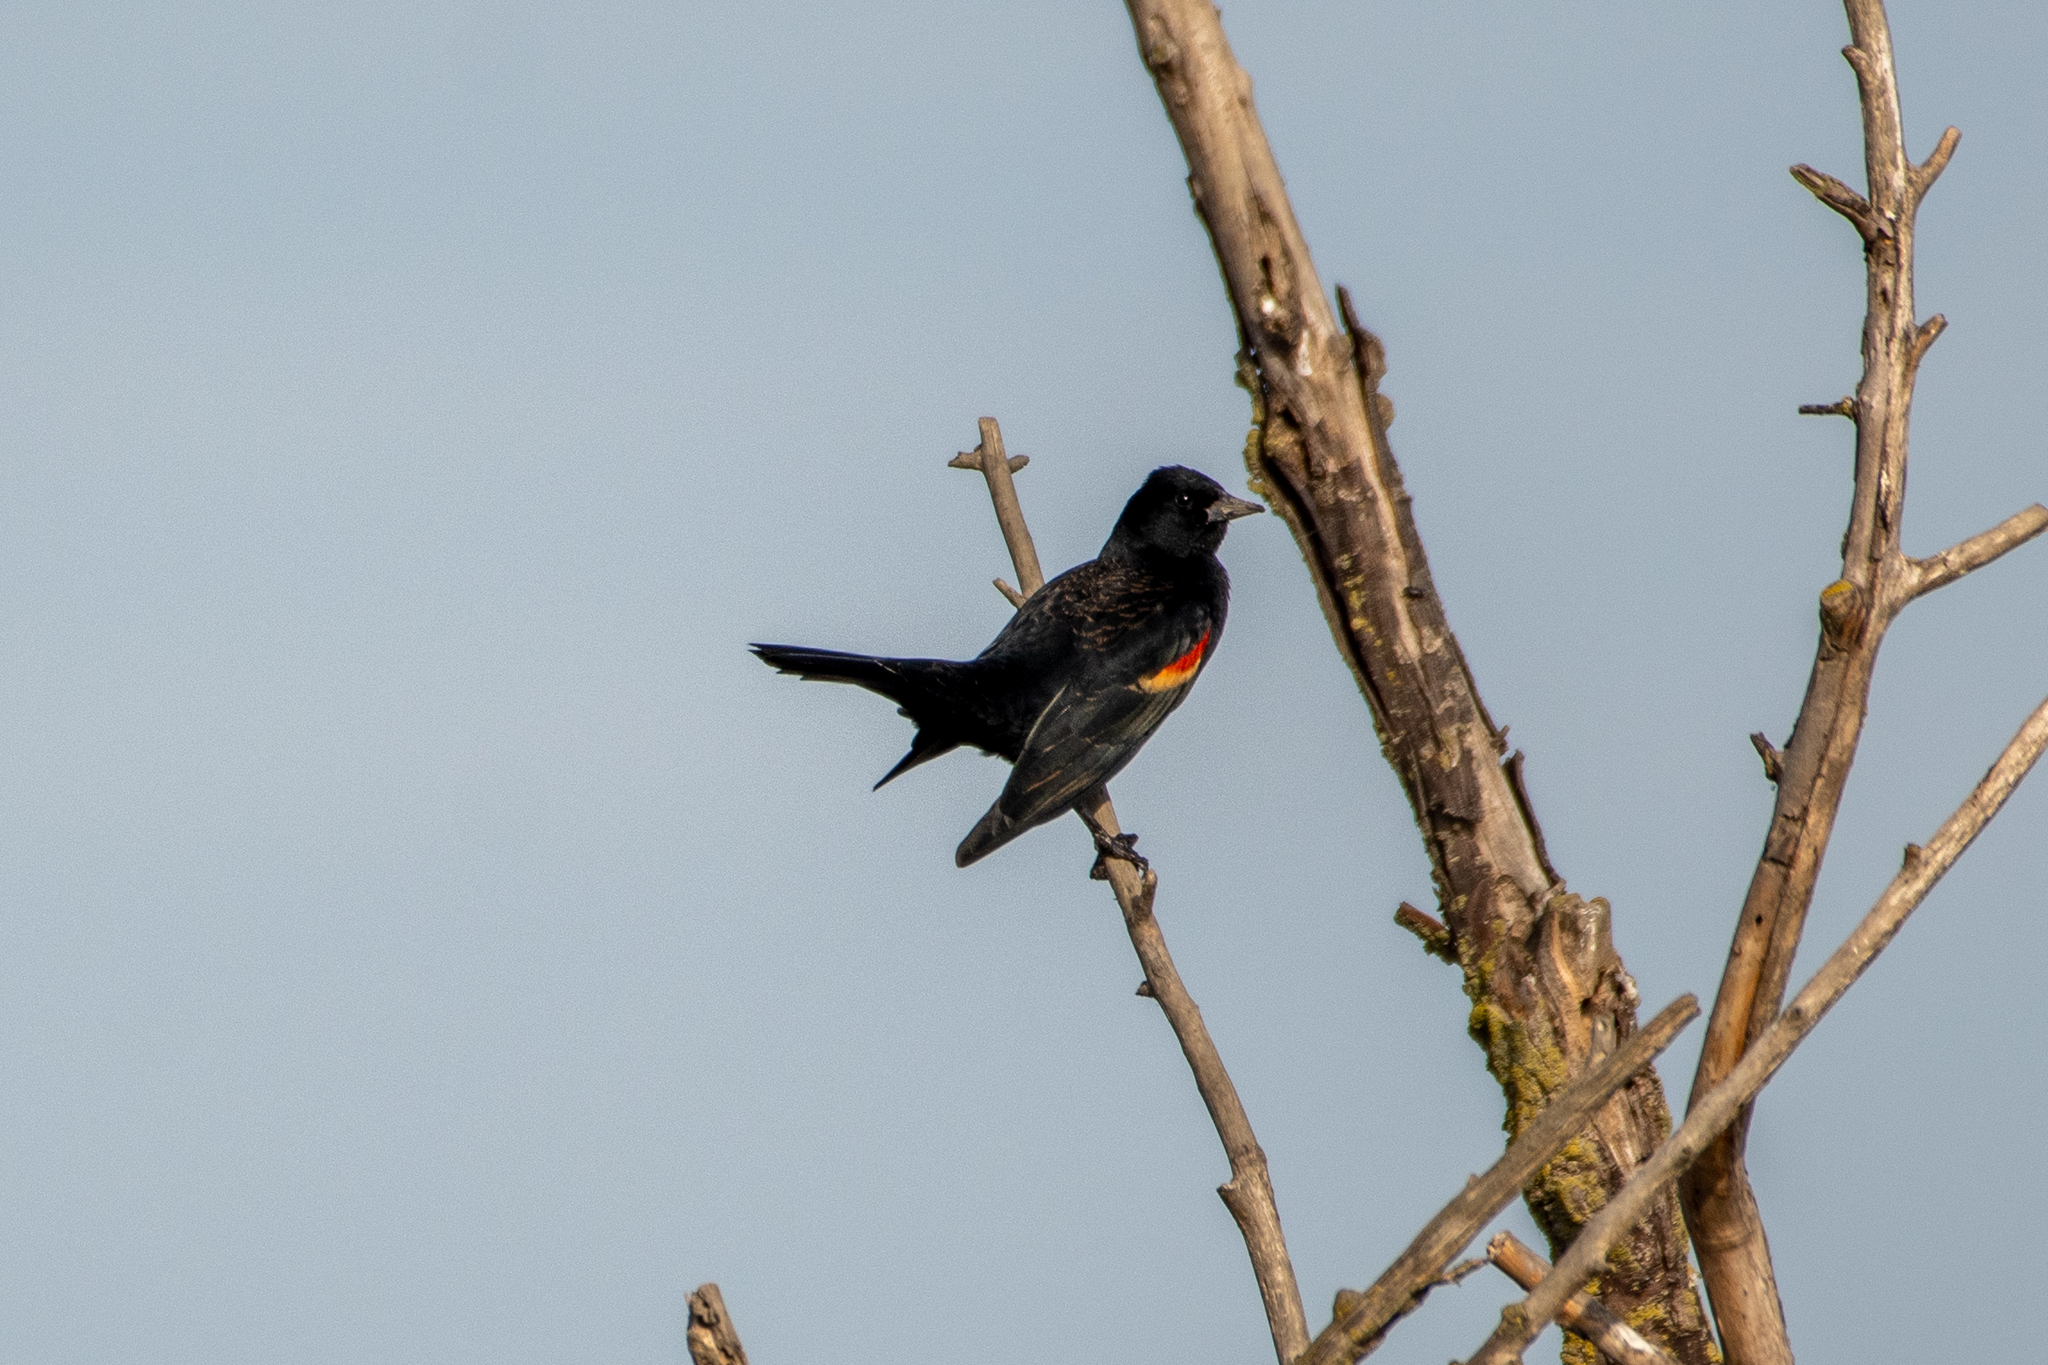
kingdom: Animalia
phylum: Chordata
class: Aves
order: Passeriformes
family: Icteridae
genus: Agelaius
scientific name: Agelaius phoeniceus
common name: Red-winged blackbird
